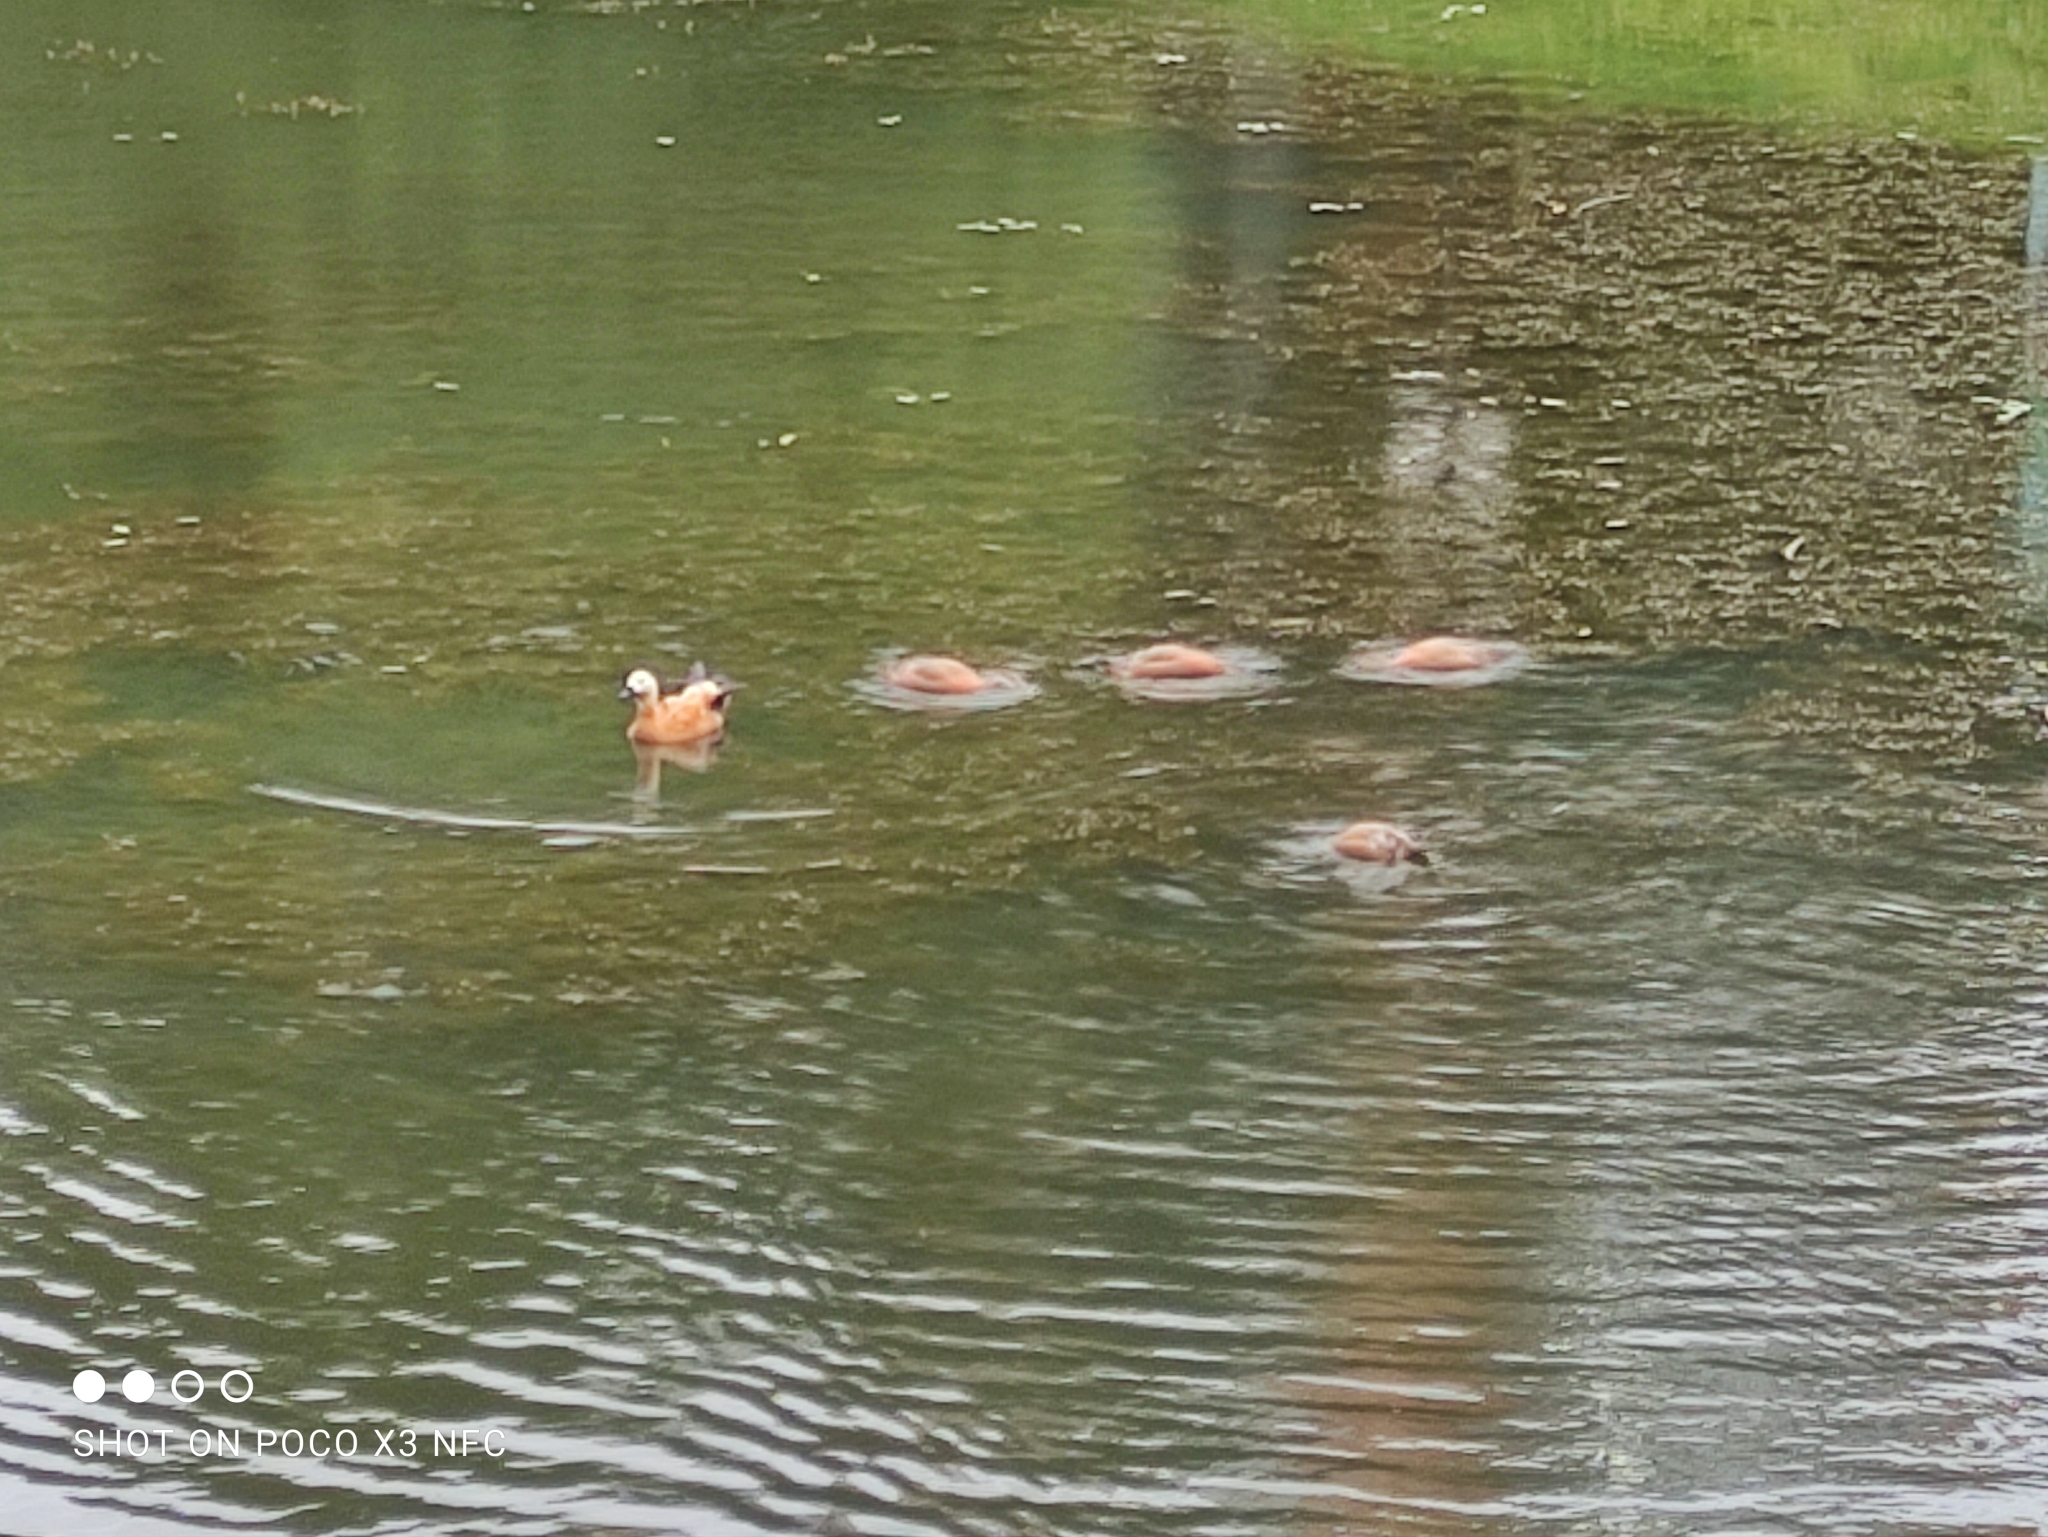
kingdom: Animalia
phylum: Chordata
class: Aves
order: Anseriformes
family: Anatidae
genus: Tadorna
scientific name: Tadorna ferruginea
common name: Ruddy shelduck
